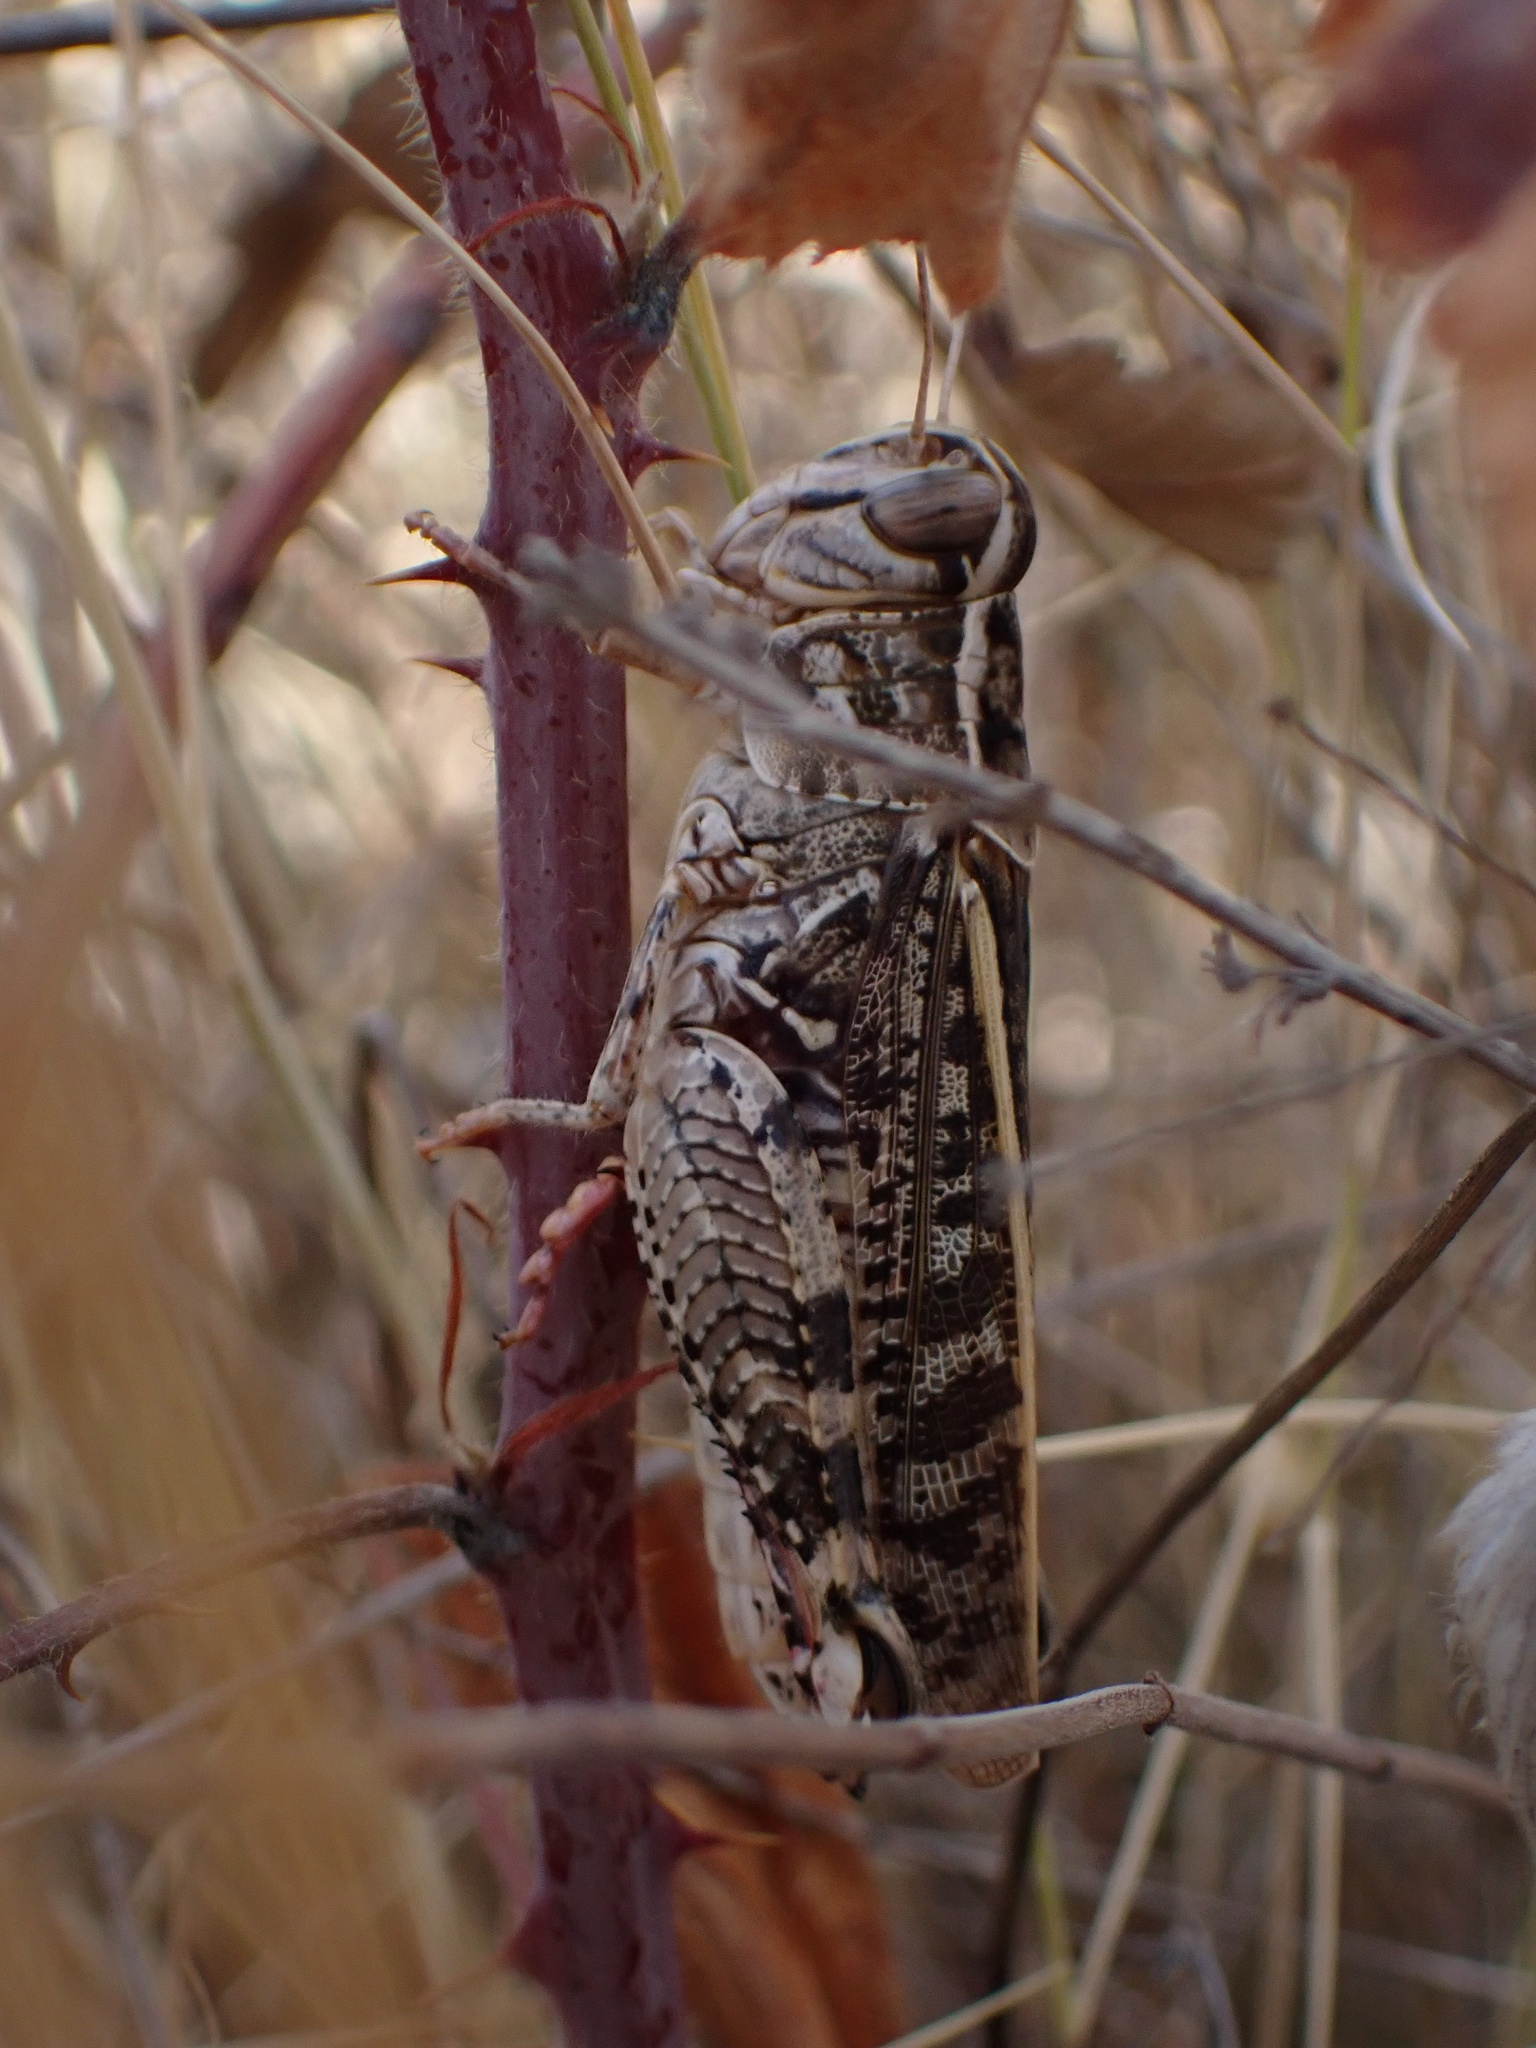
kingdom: Animalia
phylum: Arthropoda
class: Insecta
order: Orthoptera
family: Acrididae
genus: Calliptamus
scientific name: Calliptamus italicus
